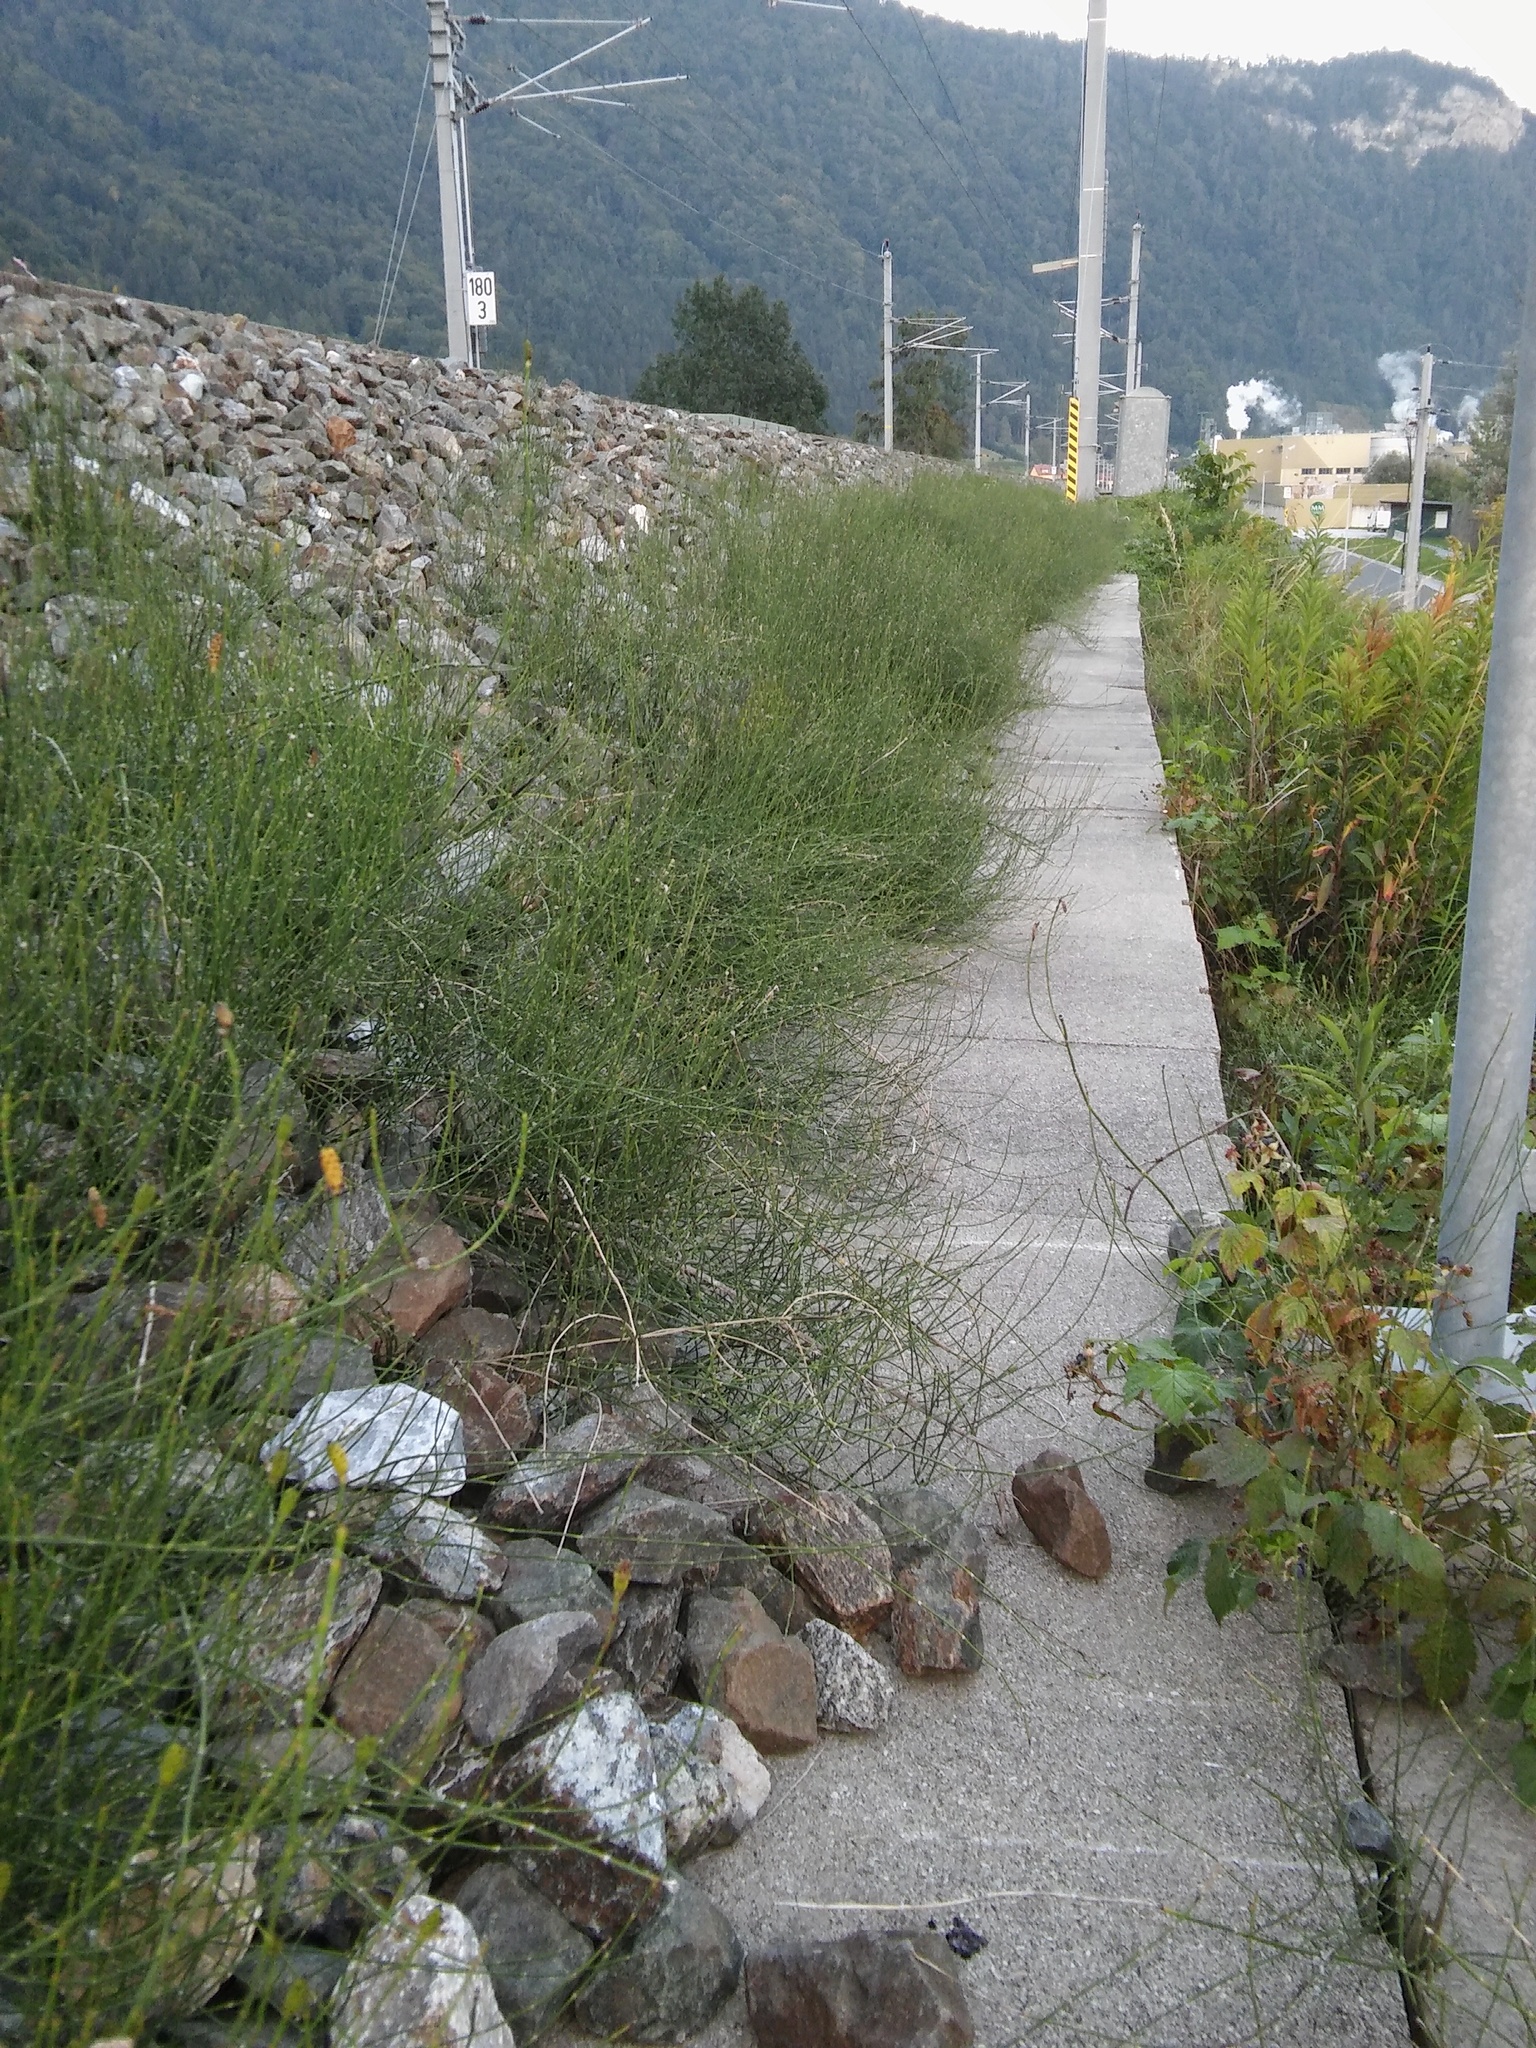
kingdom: Plantae
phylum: Tracheophyta
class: Polypodiopsida
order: Equisetales
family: Equisetaceae
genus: Equisetum
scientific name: Equisetum ramosissimum
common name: Branched horsetail
